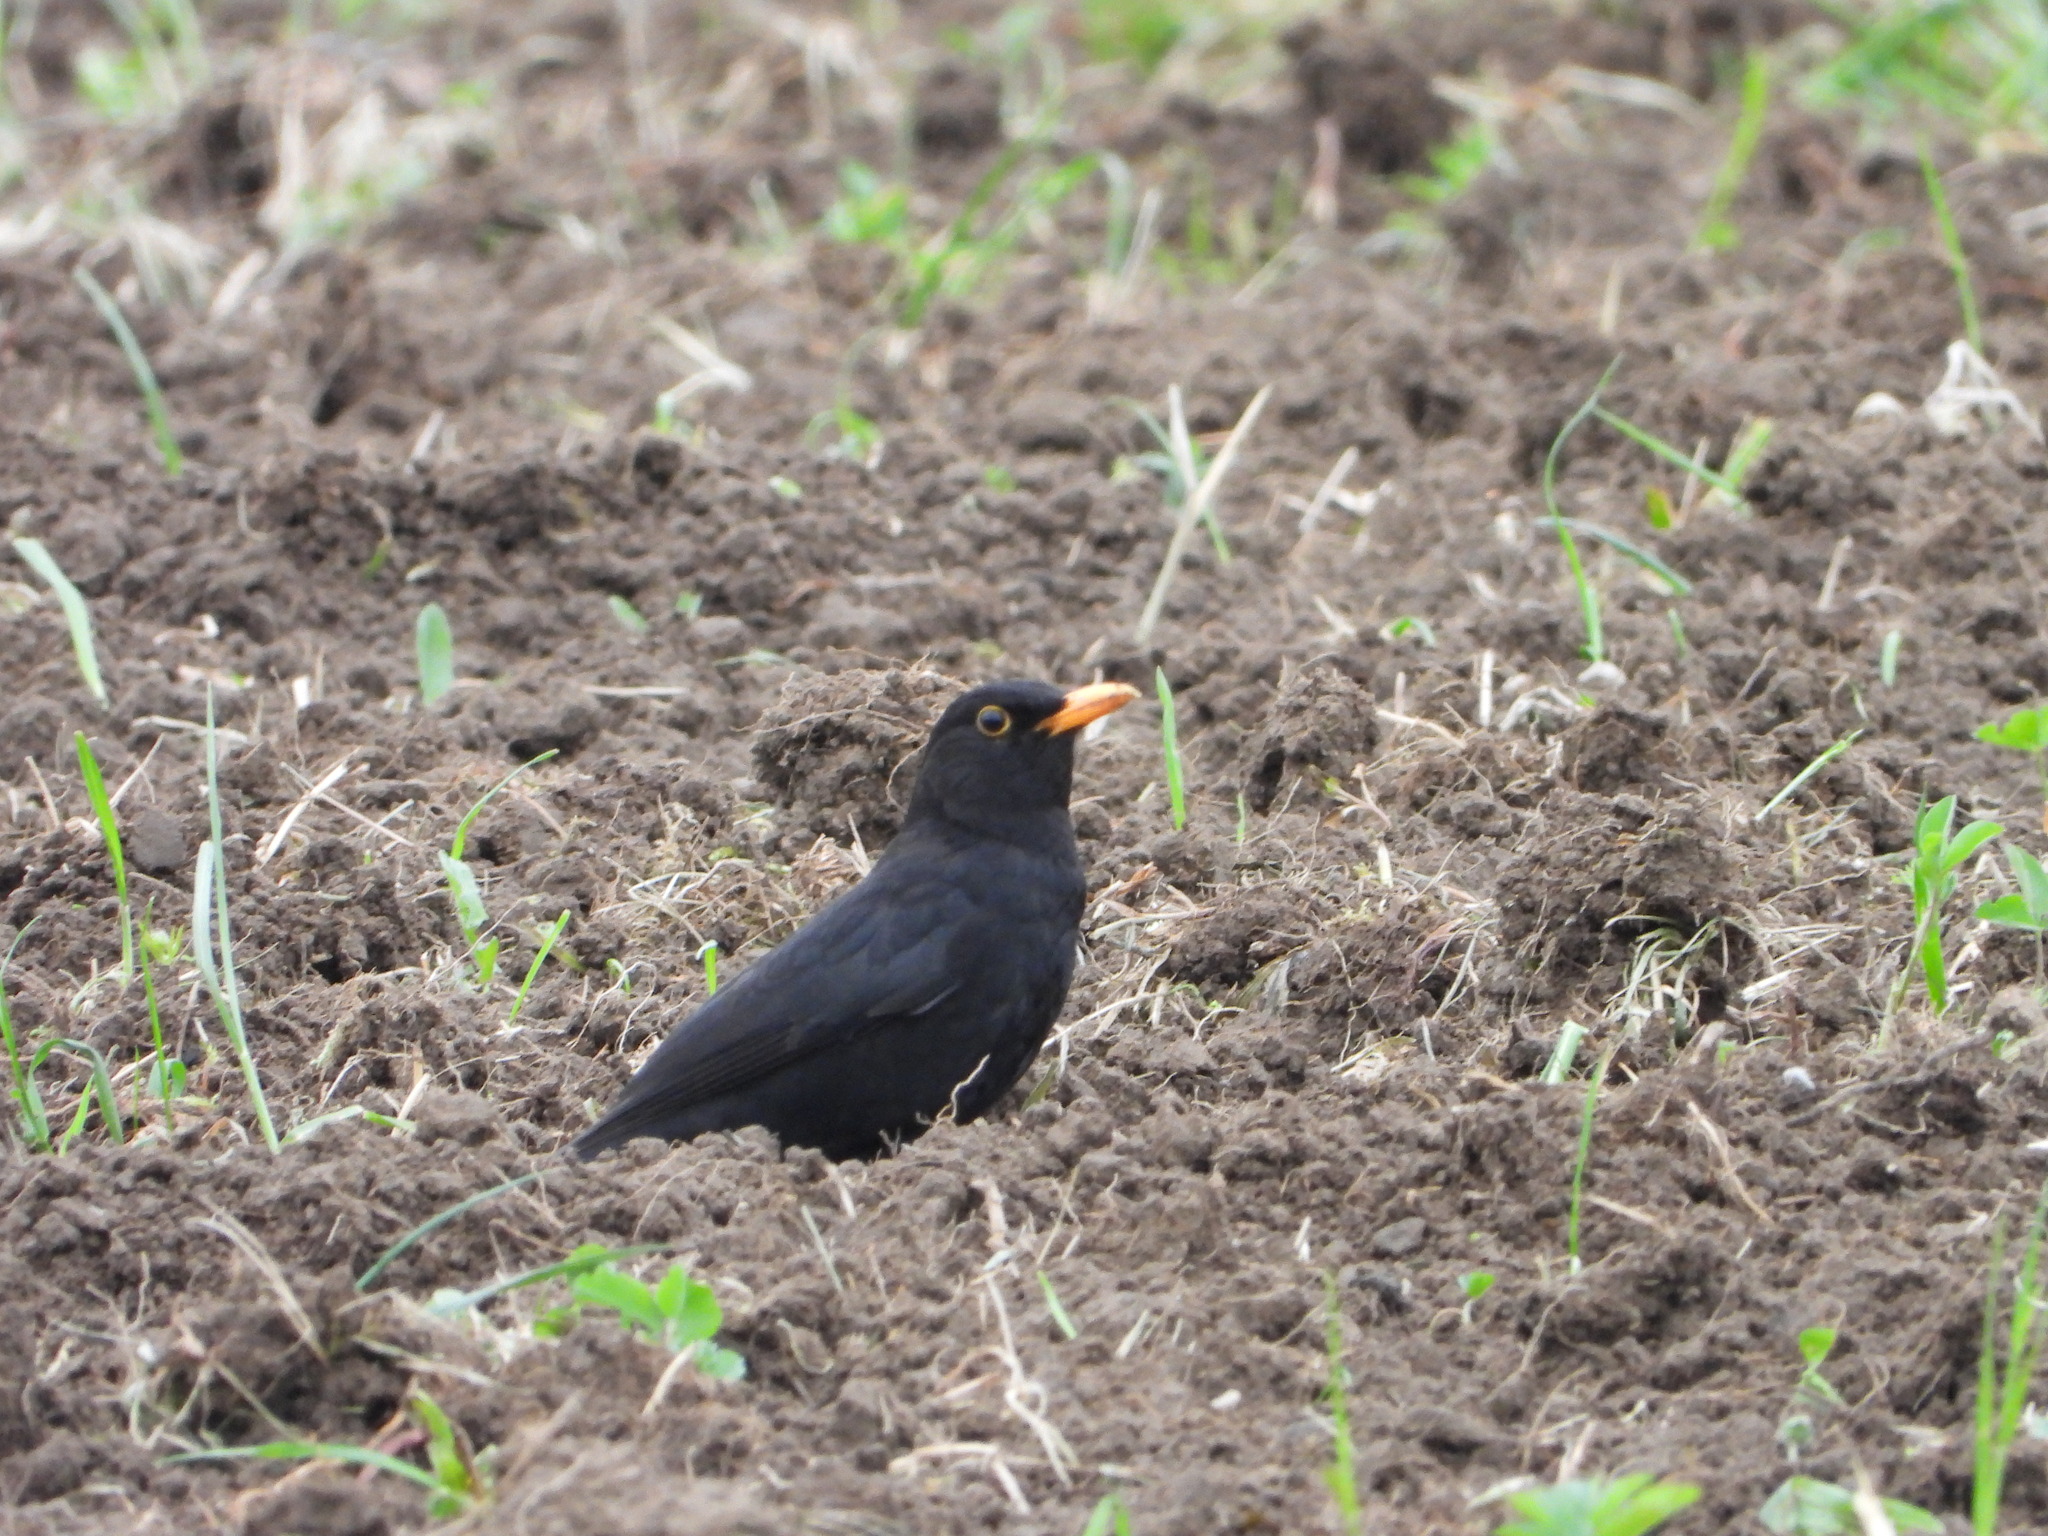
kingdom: Animalia
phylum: Chordata
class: Aves
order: Passeriformes
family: Turdidae
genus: Turdus
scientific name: Turdus merula
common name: Common blackbird
